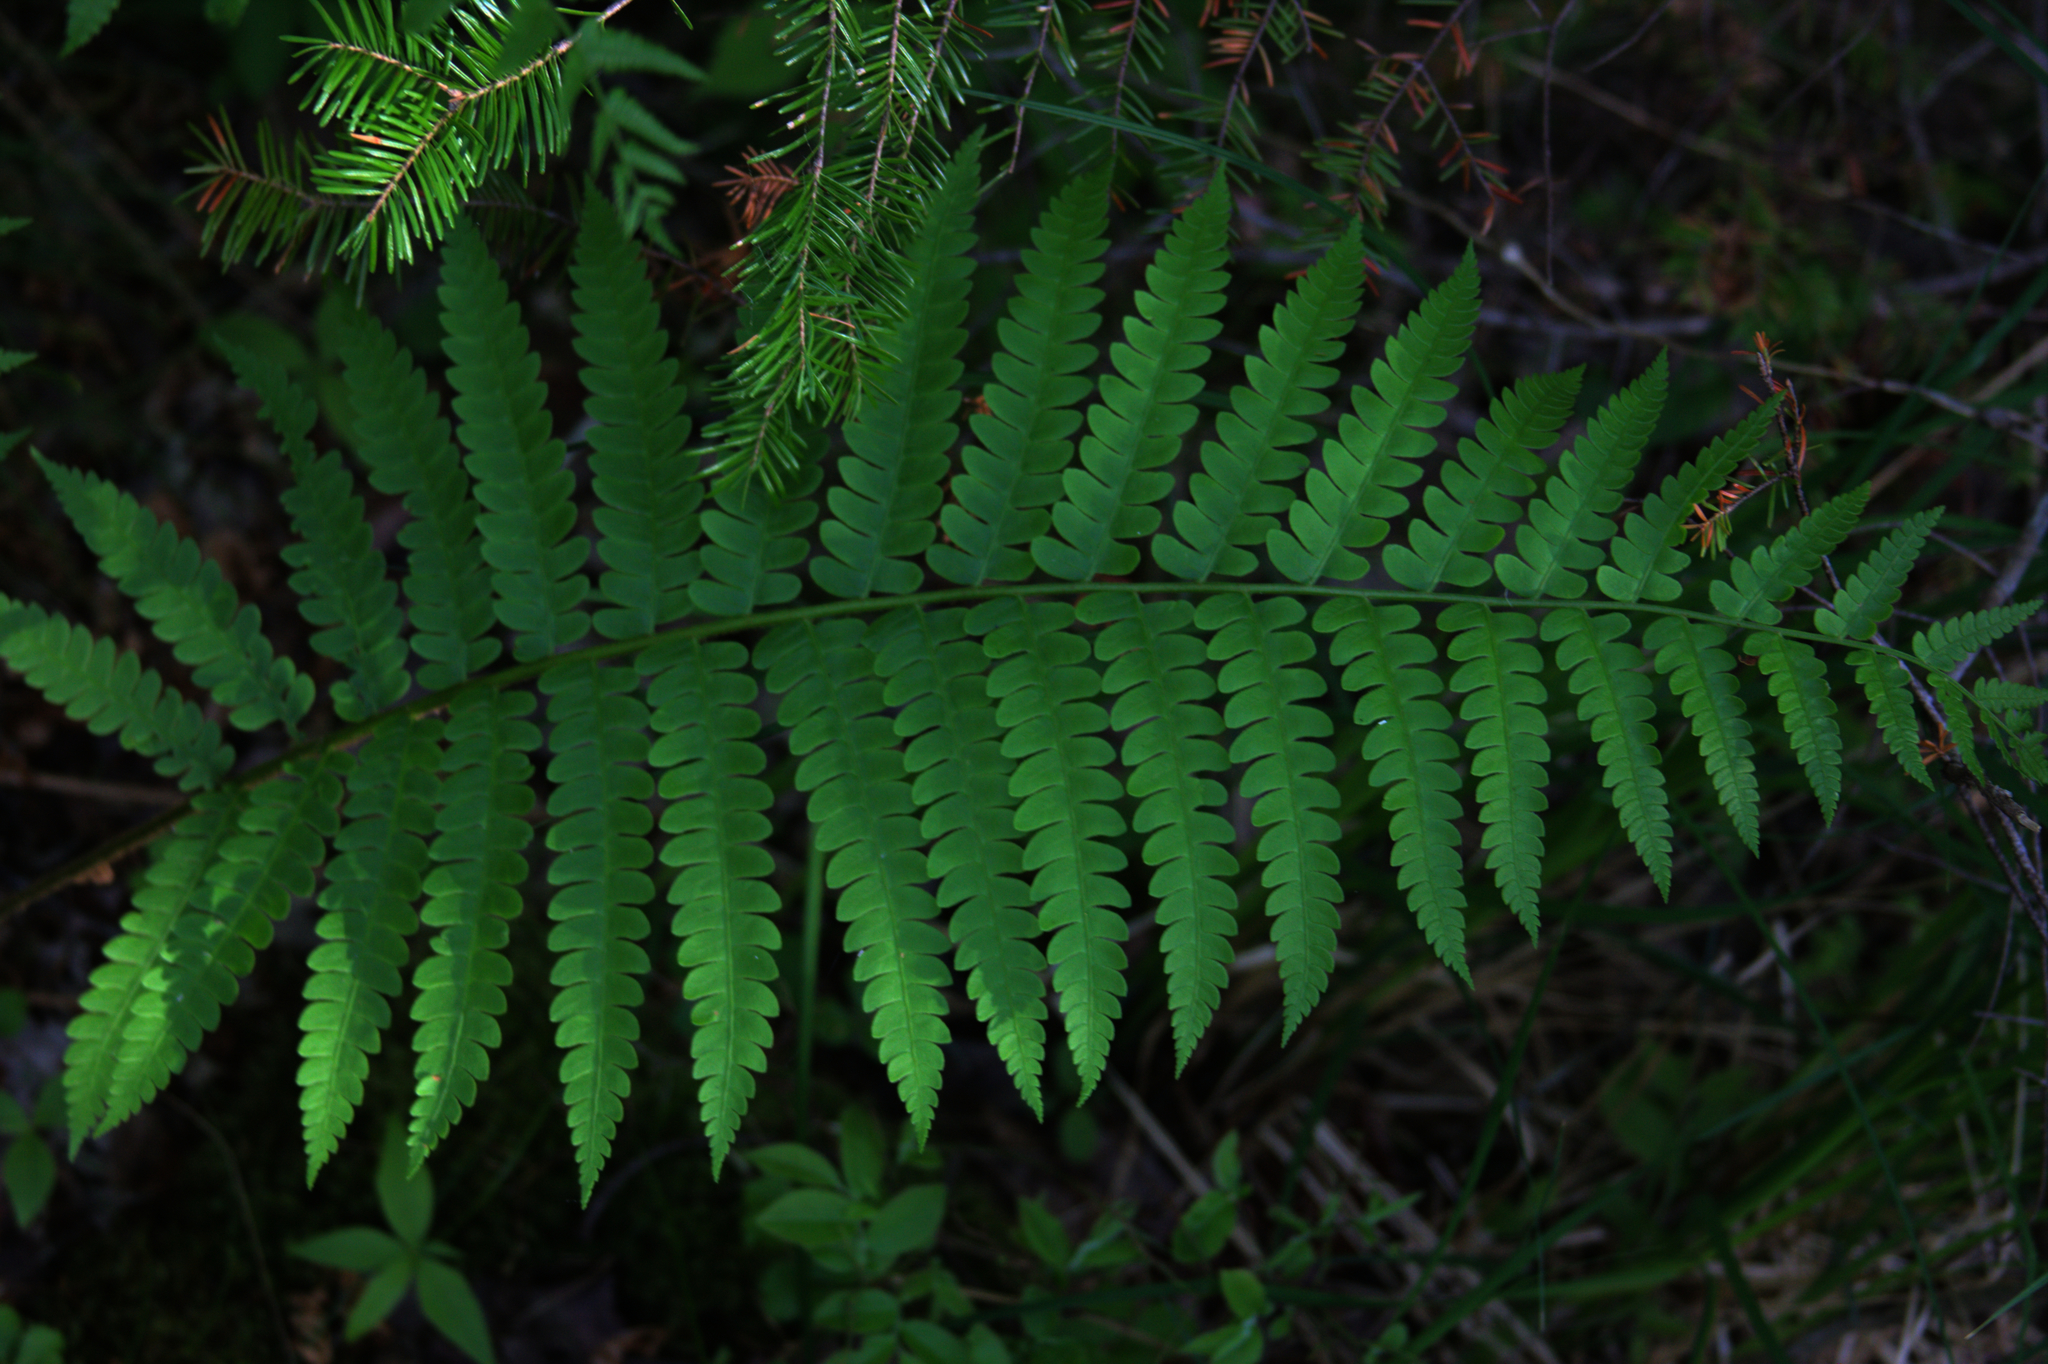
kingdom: Plantae
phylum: Tracheophyta
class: Pinopsida
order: Pinales
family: Pinaceae
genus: Abies
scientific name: Abies balsamea
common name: Balsam fir
